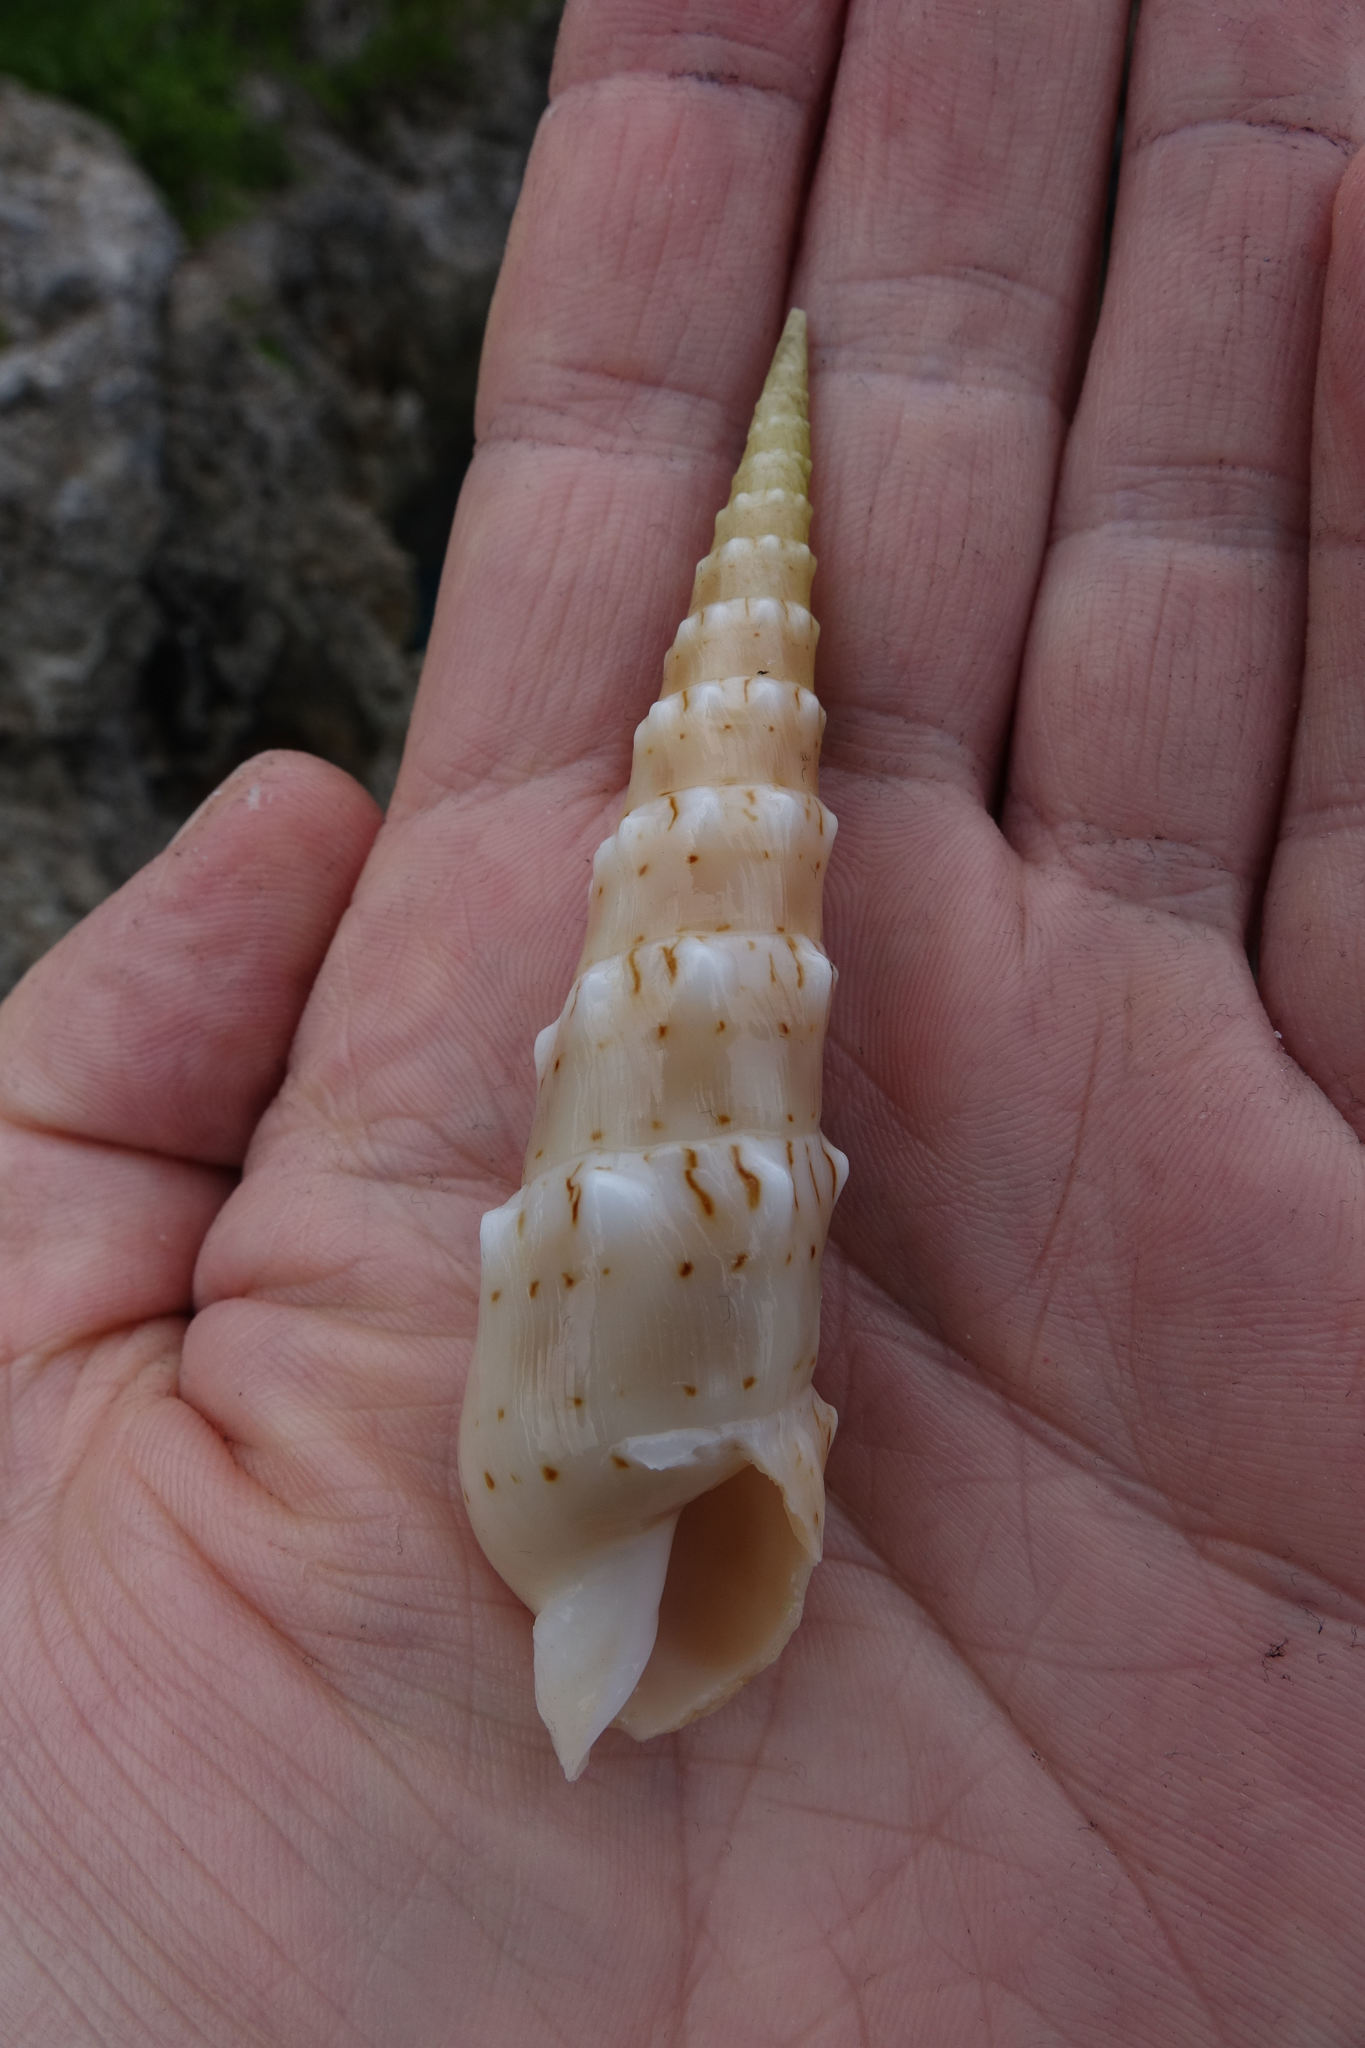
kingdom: Animalia
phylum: Mollusca
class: Gastropoda
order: Neogastropoda
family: Terebridae
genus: Oxymeris
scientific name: Oxymeris crenulata
